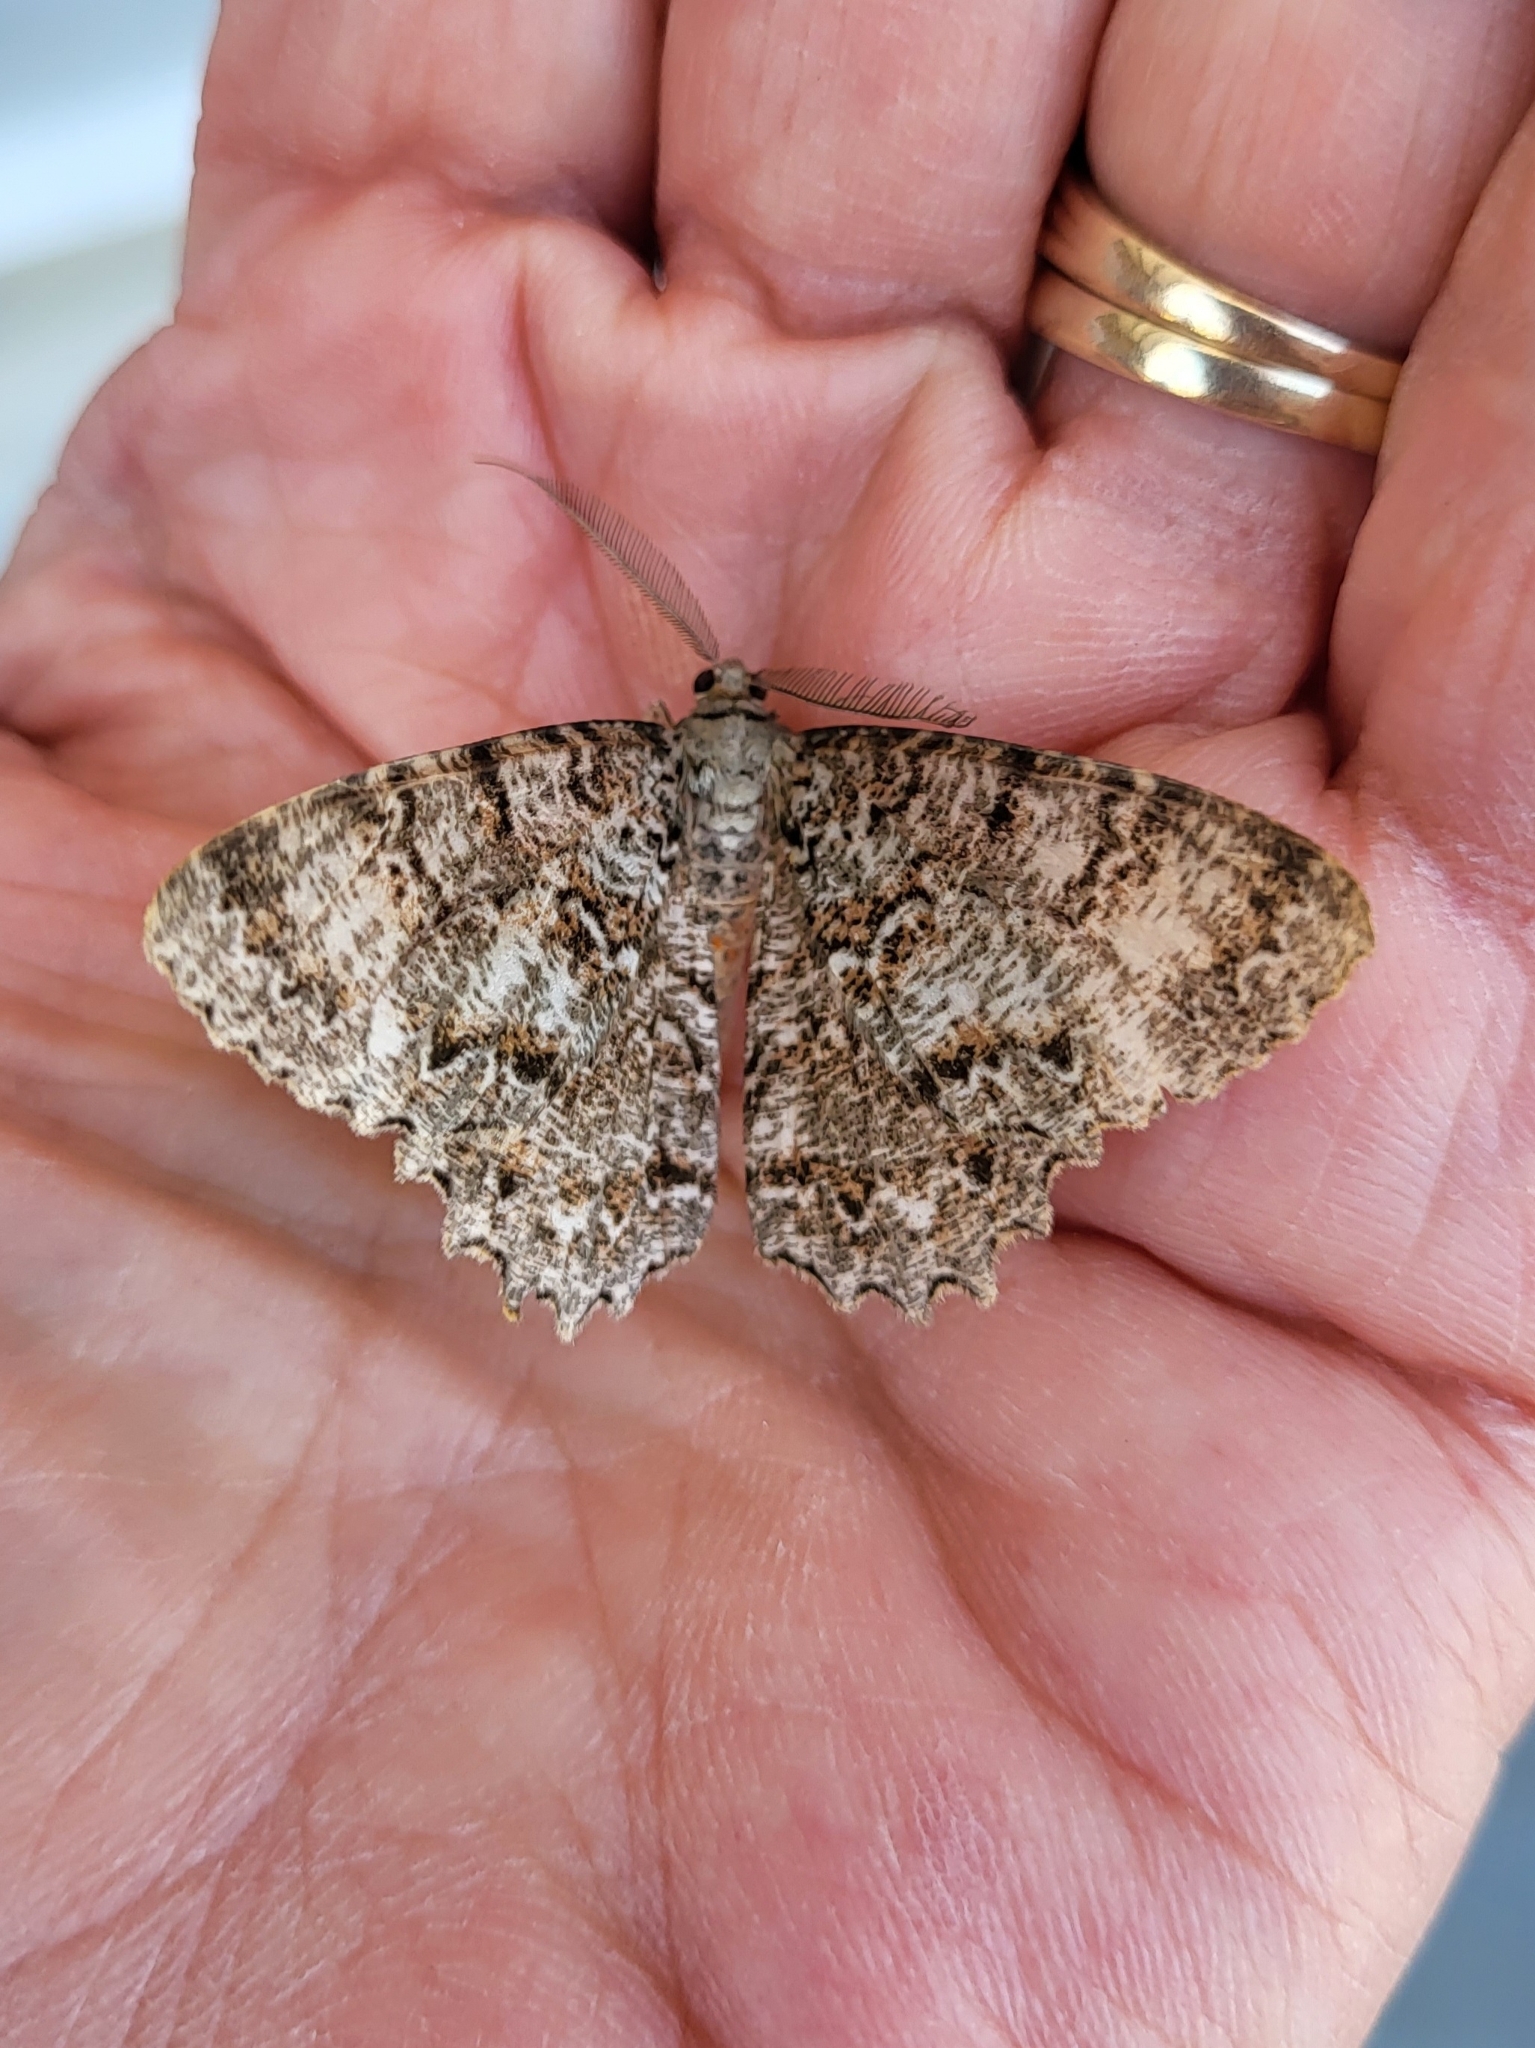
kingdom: Animalia
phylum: Arthropoda
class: Insecta
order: Lepidoptera
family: Geometridae
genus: Epimecis
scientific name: Epimecis hortaria
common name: Tulip-tree beauty
